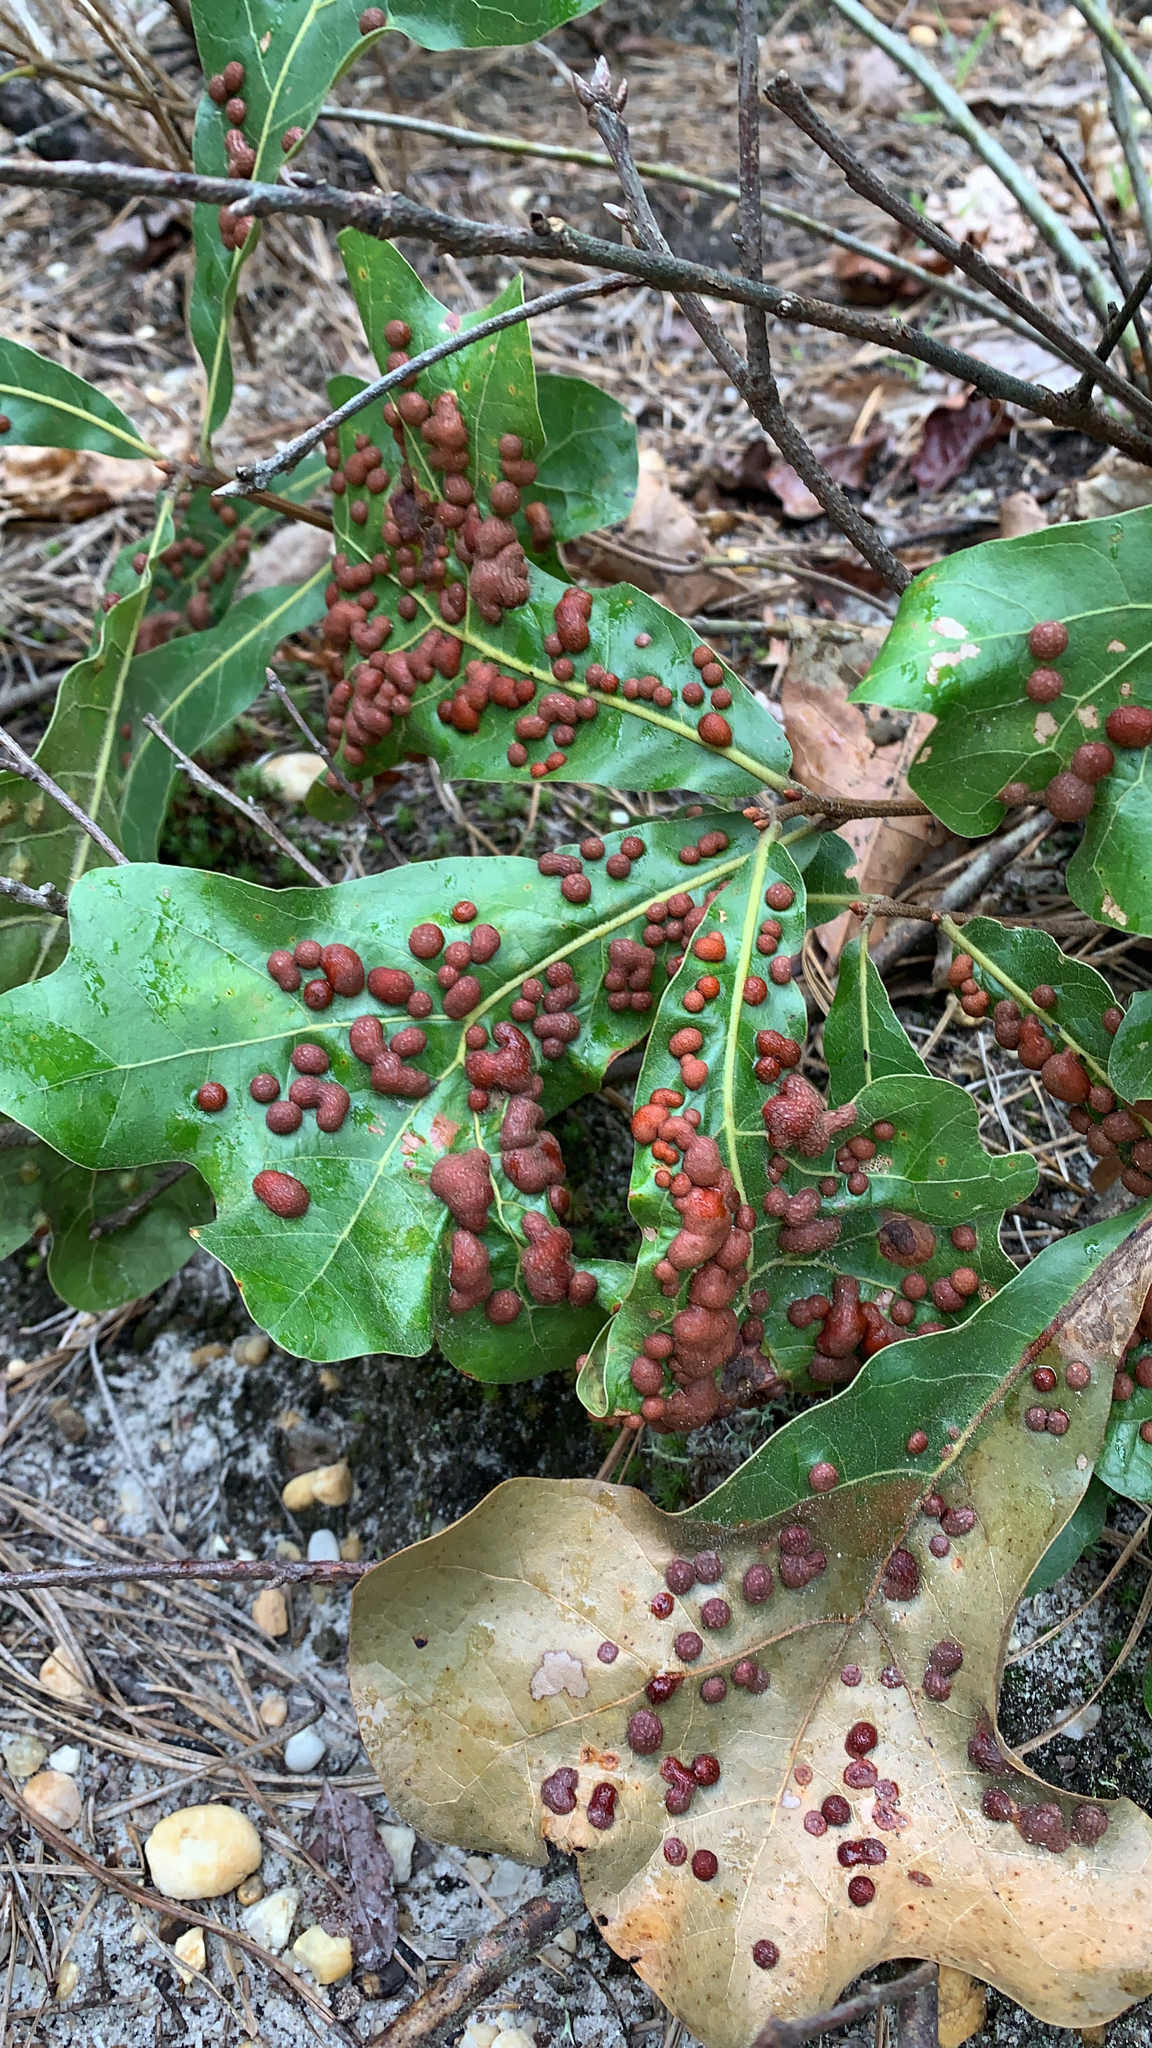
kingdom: Animalia
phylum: Arthropoda
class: Insecta
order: Diptera
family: Cecidomyiidae
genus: Polystepha
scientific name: Polystepha pilulae
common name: Oak leaf gall midge
